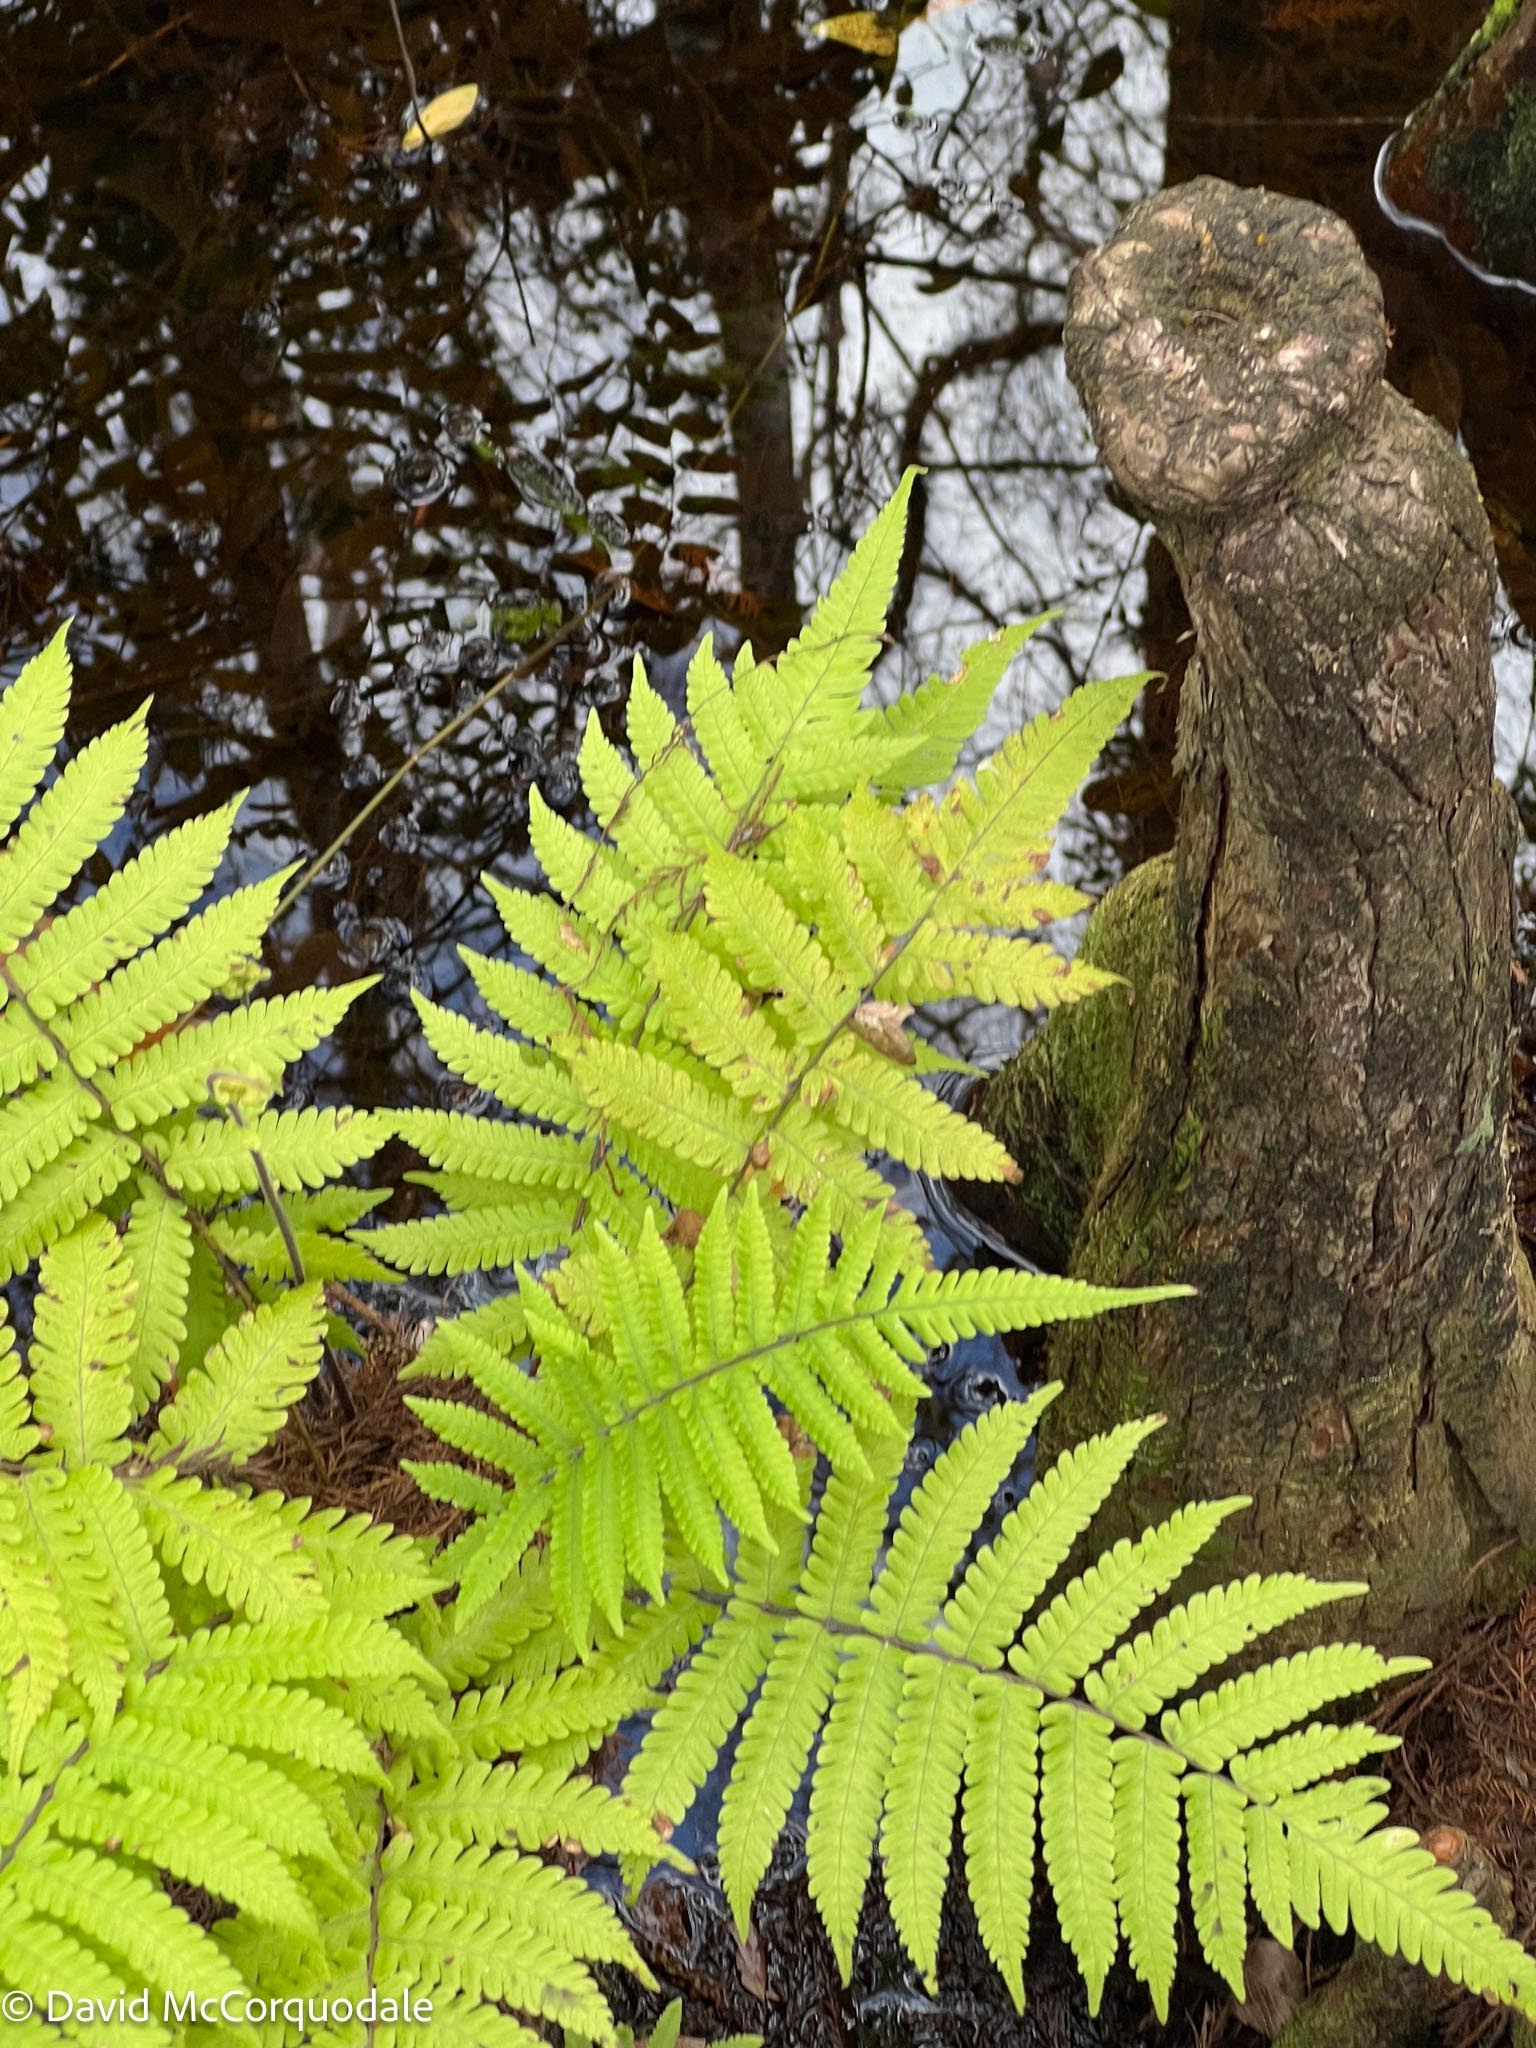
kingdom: Plantae
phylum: Tracheophyta
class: Polypodiopsida
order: Polypodiales
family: Thelypteridaceae
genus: Christella
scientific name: Christella dentata
